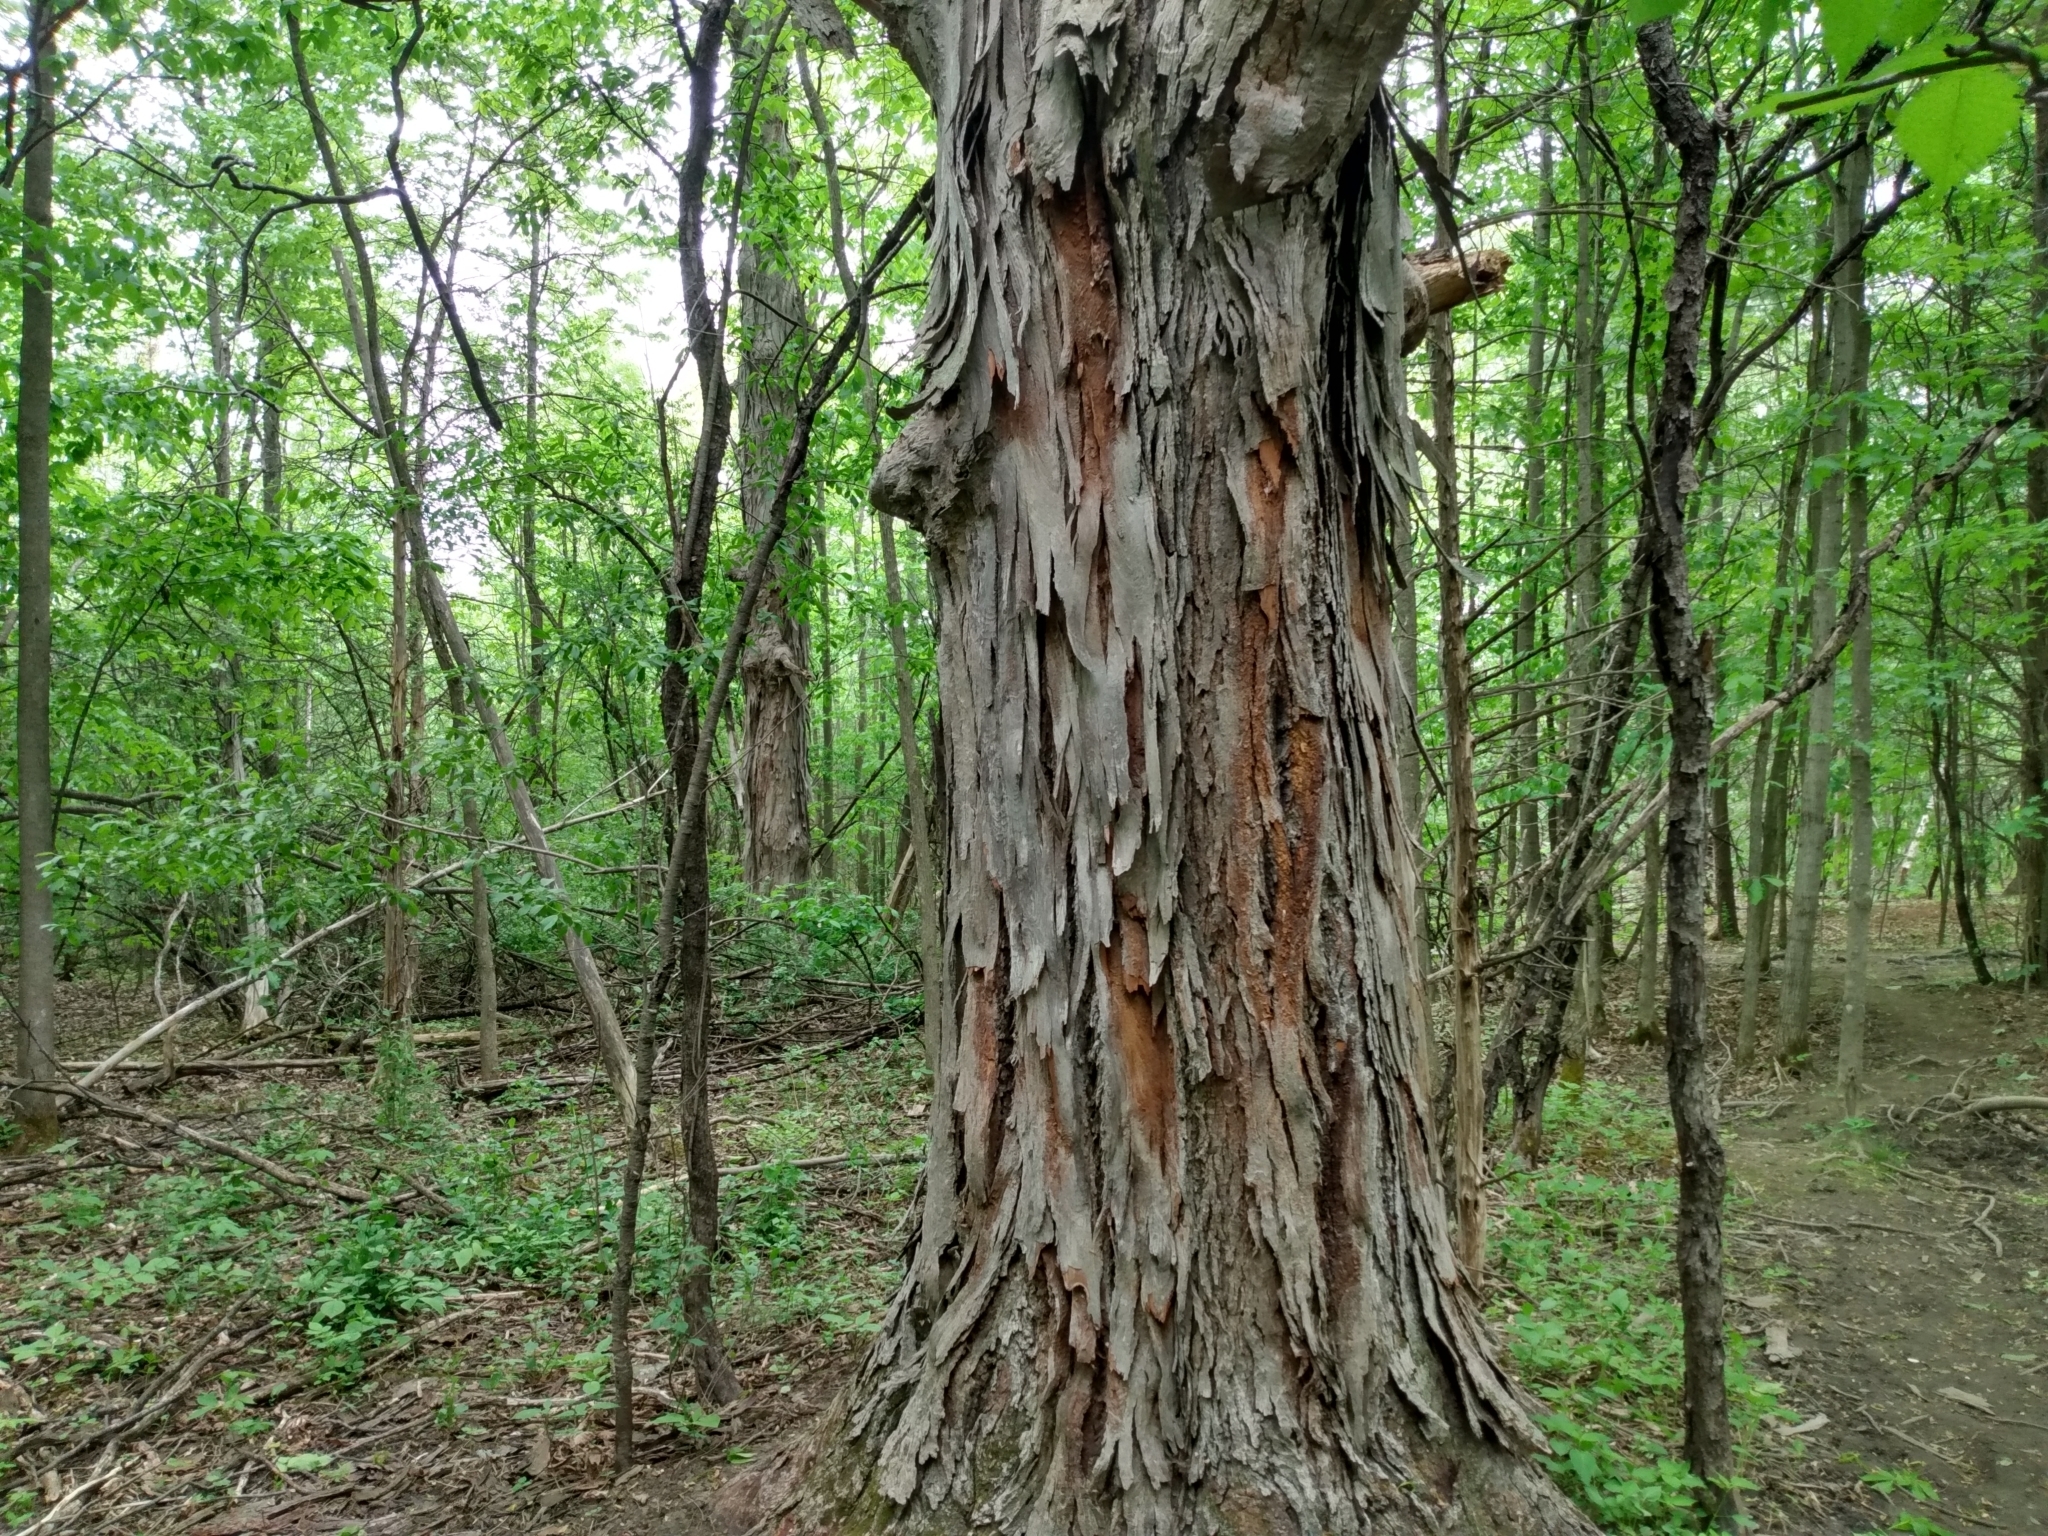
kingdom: Plantae
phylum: Tracheophyta
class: Magnoliopsida
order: Fagales
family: Juglandaceae
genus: Carya
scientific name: Carya ovata
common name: Shagbark hickory
